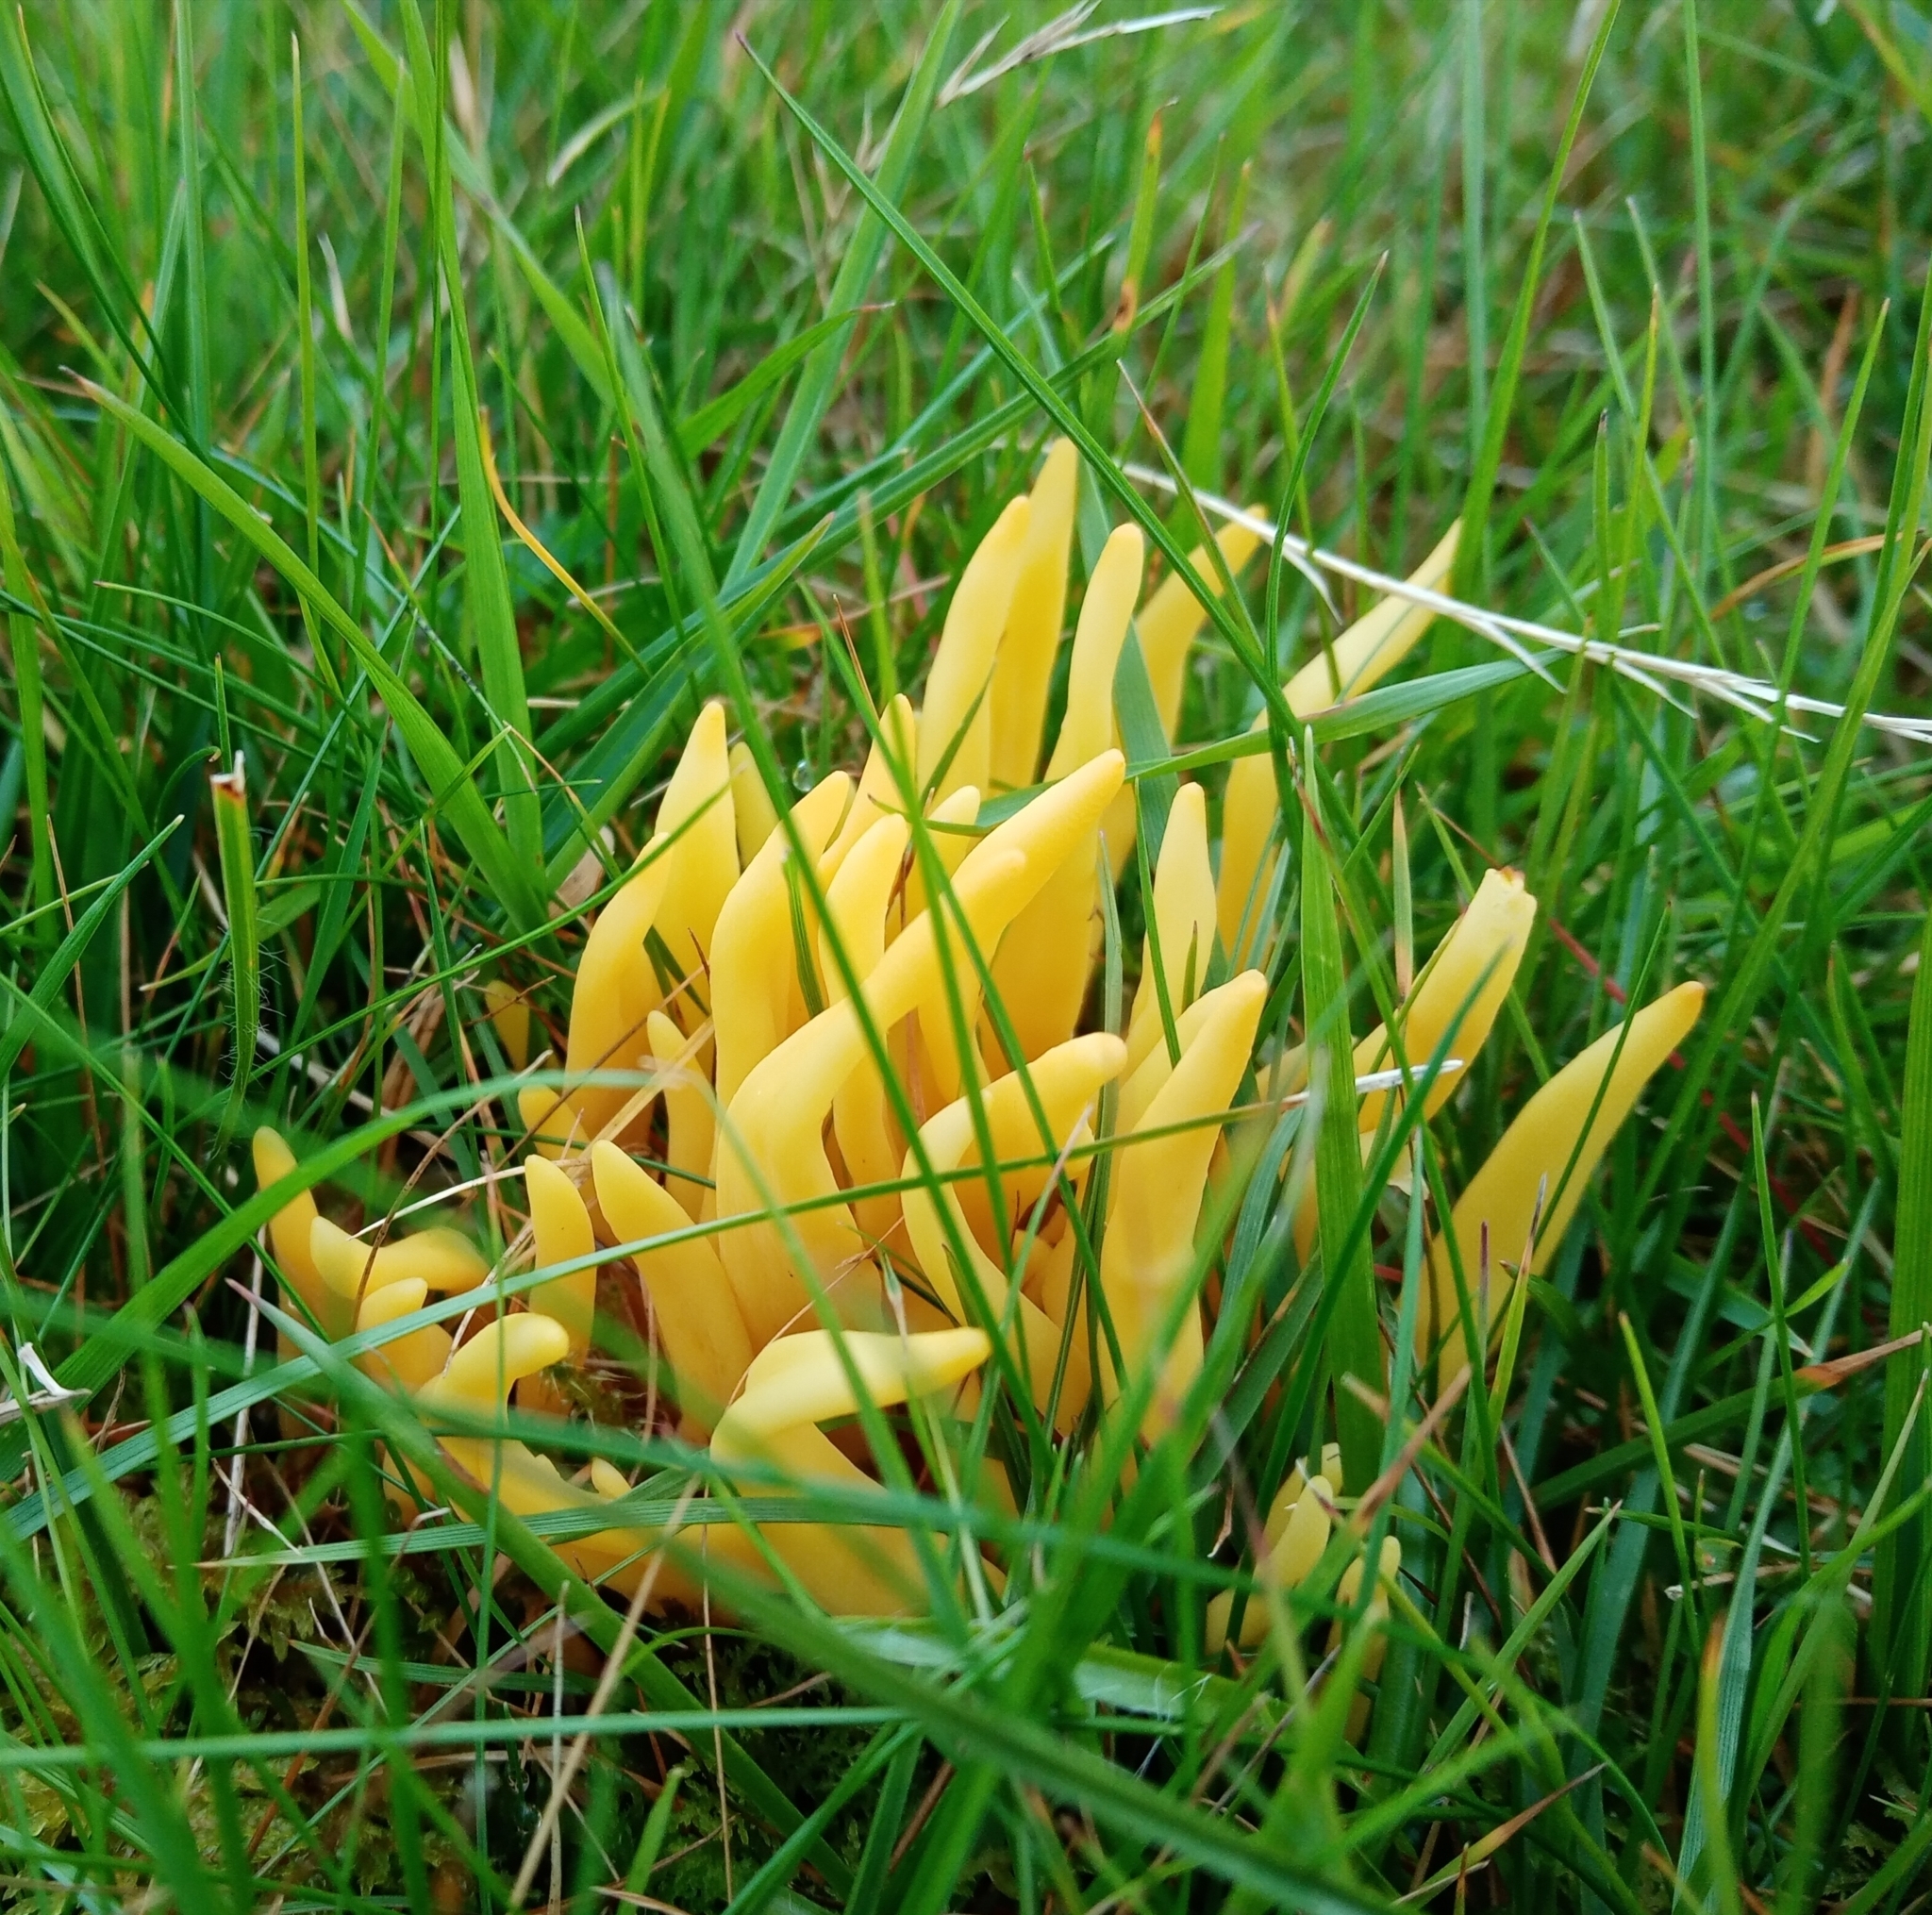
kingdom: Fungi
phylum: Basidiomycota
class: Agaricomycetes
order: Agaricales
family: Clavariaceae
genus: Clavulinopsis
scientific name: Clavulinopsis fusiformis
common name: Golden spindles
